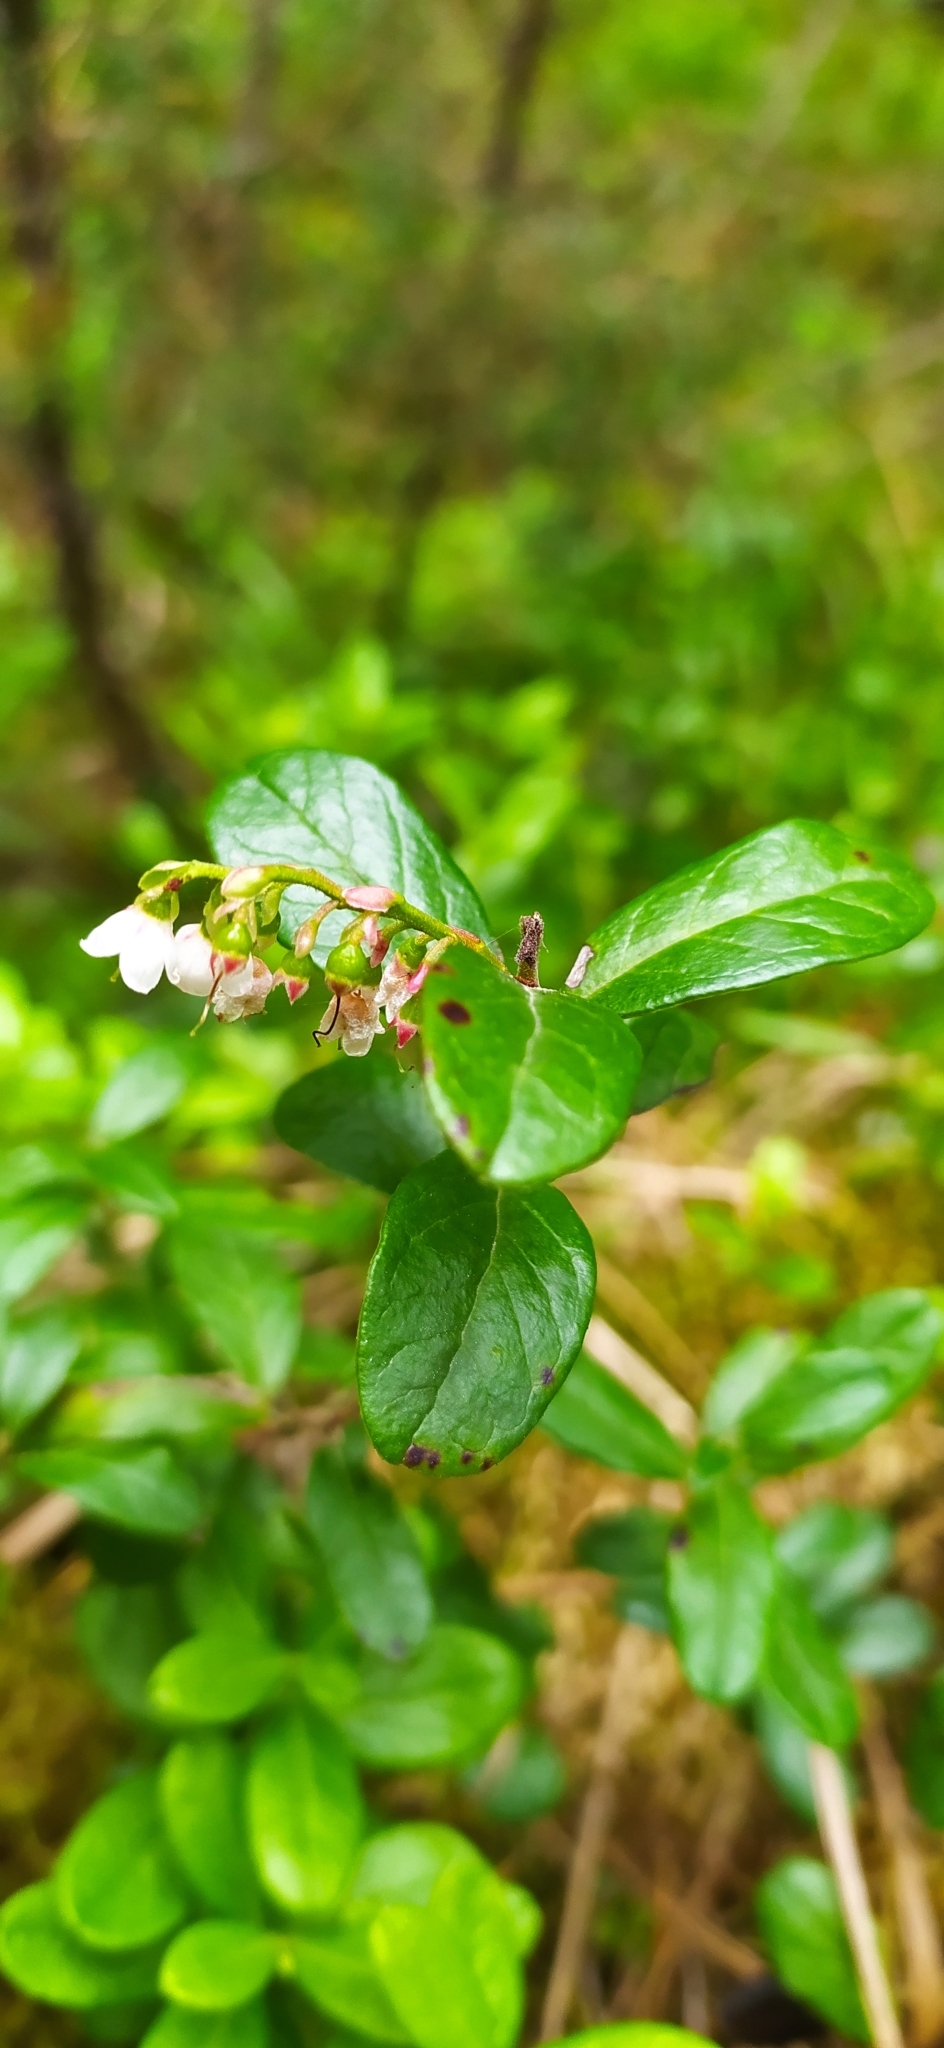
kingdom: Plantae
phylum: Tracheophyta
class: Magnoliopsida
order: Ericales
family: Ericaceae
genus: Vaccinium
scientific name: Vaccinium vitis-idaea
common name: Cowberry
